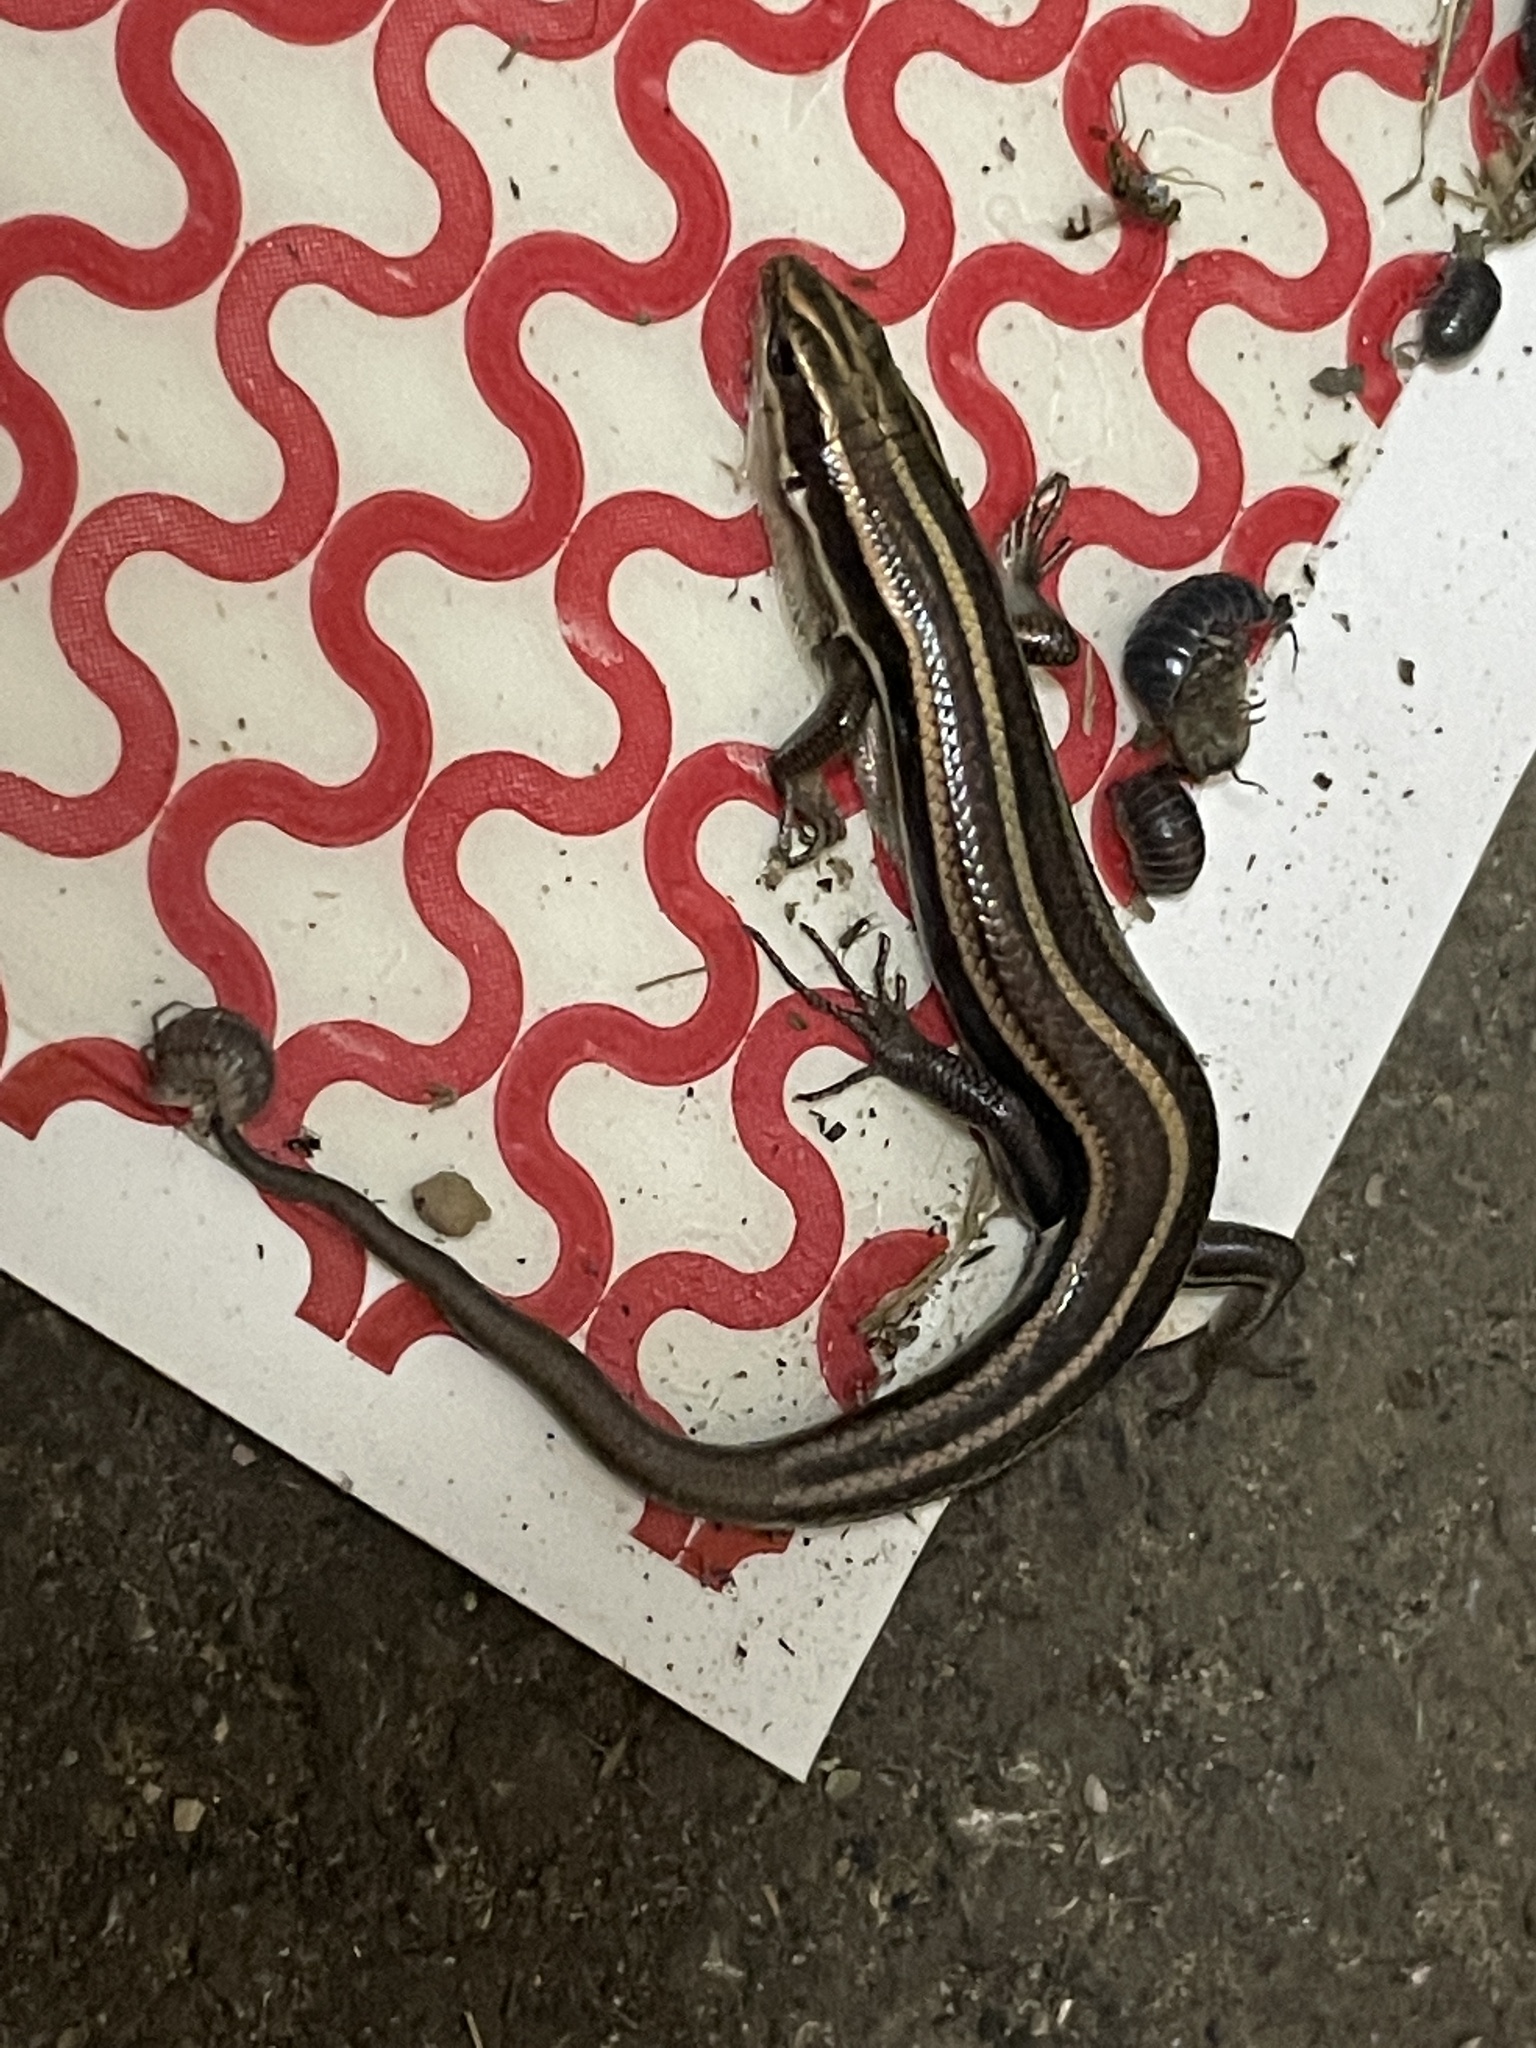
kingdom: Animalia
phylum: Chordata
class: Squamata
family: Scincidae
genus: Plestiodon
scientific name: Plestiodon fasciatus
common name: Five-lined skink
